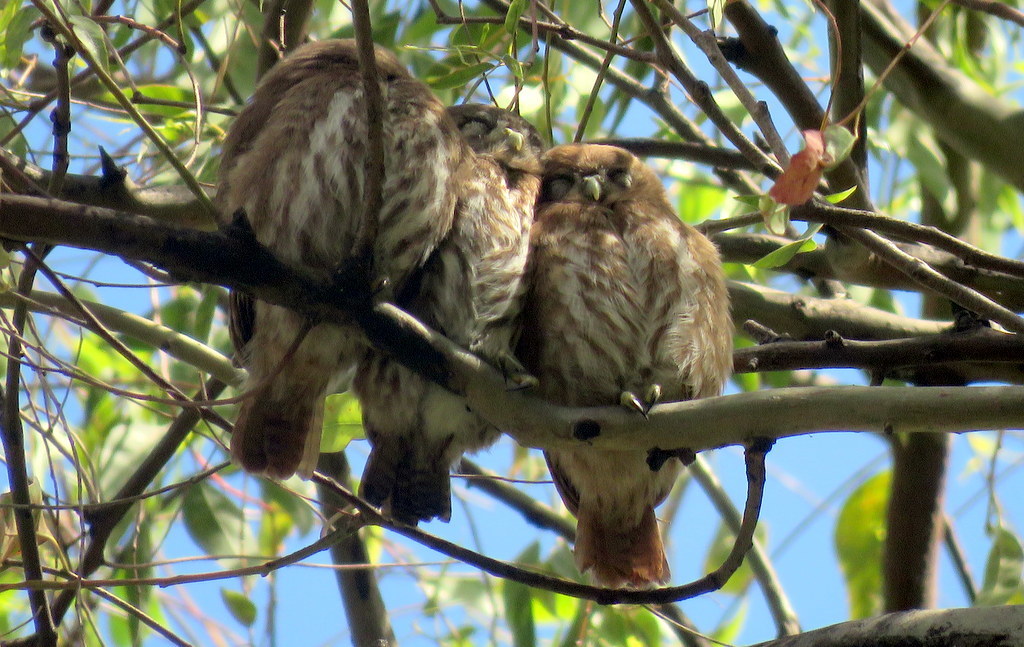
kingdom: Animalia
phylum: Chordata
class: Aves
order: Strigiformes
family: Strigidae
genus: Glaucidium
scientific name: Glaucidium brasilianum
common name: Ferruginous pygmy-owl
